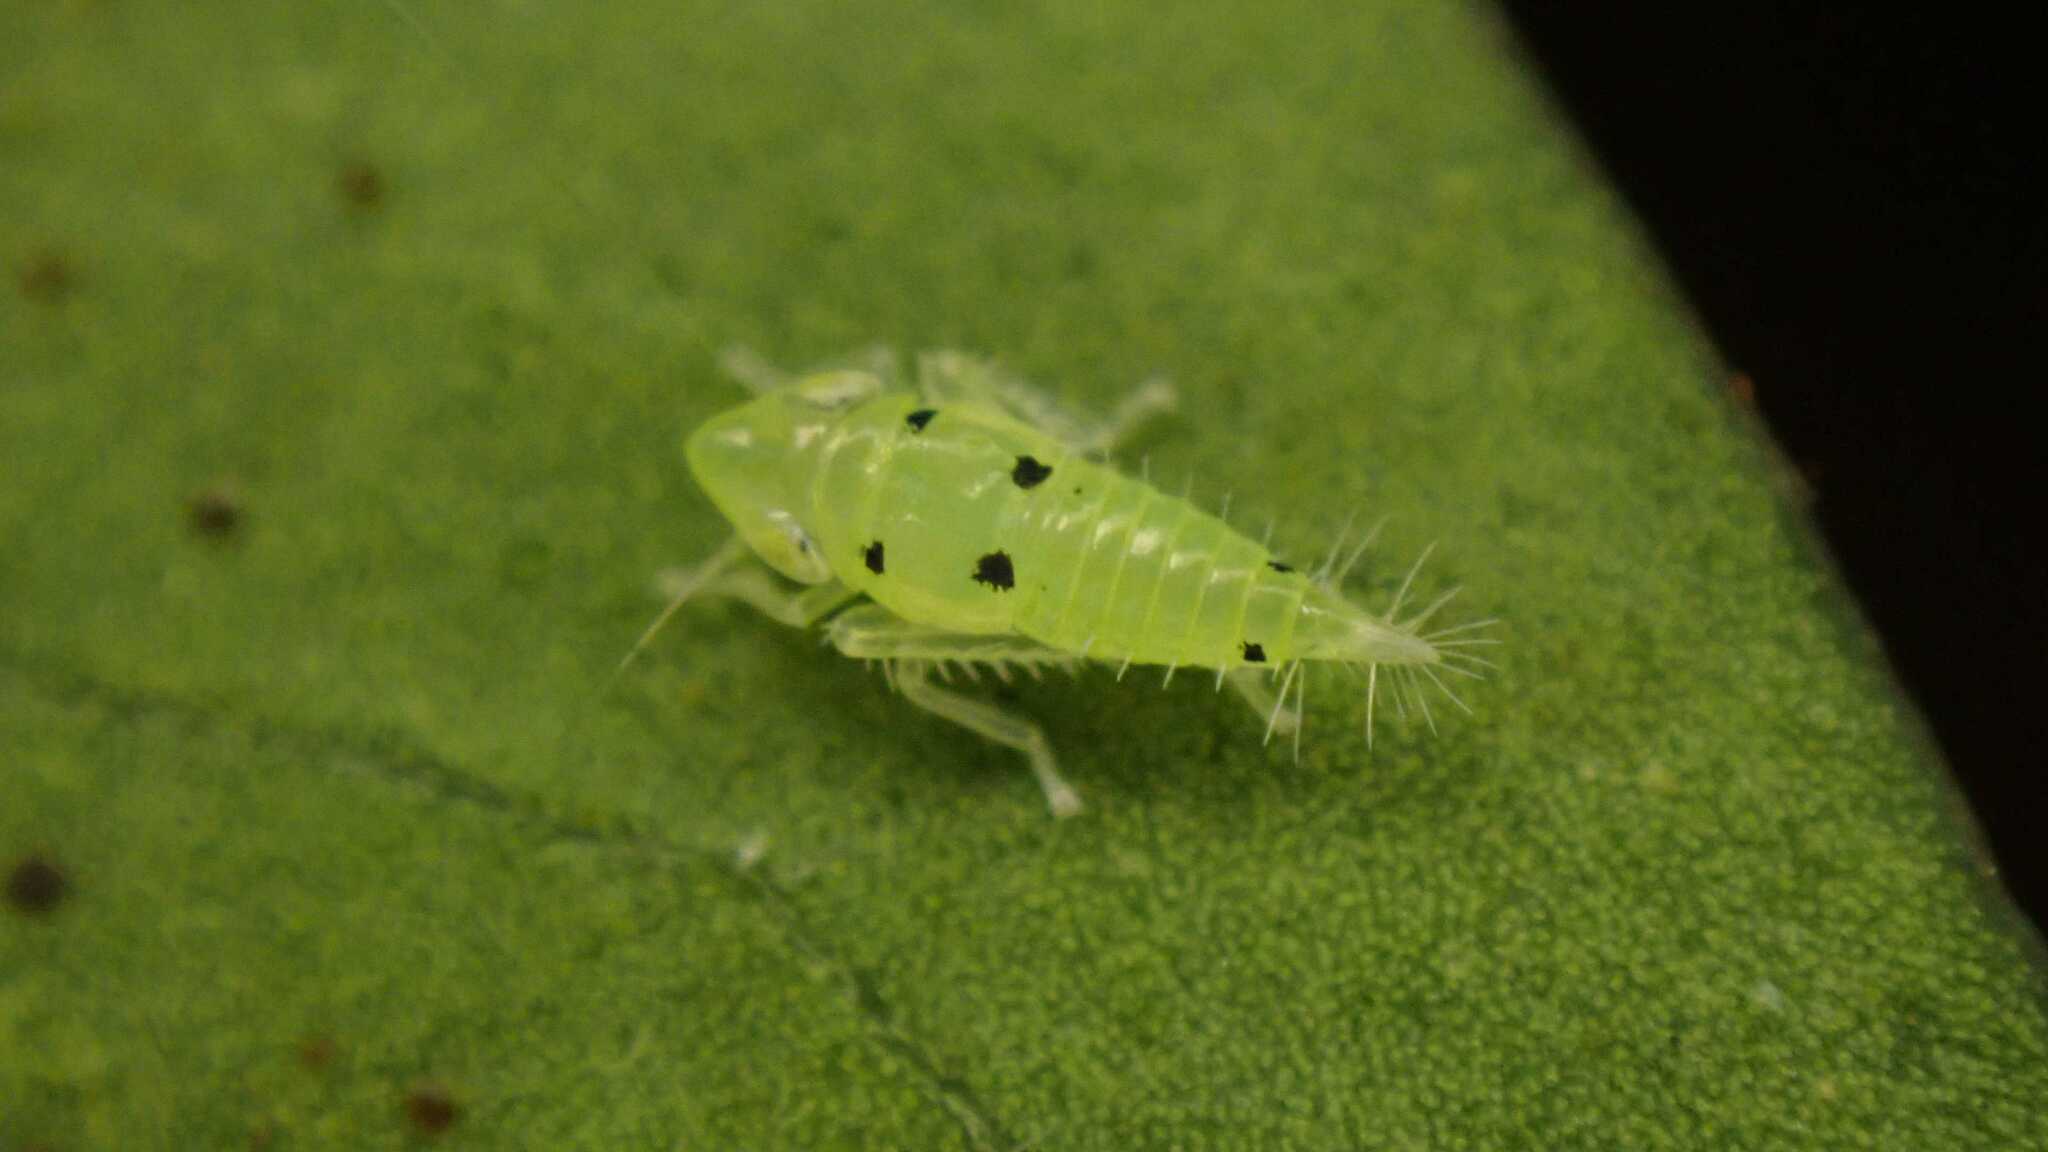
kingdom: Animalia
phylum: Arthropoda
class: Insecta
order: Hemiptera
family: Cicadellidae
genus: Synophropsis
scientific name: Synophropsis lauri
